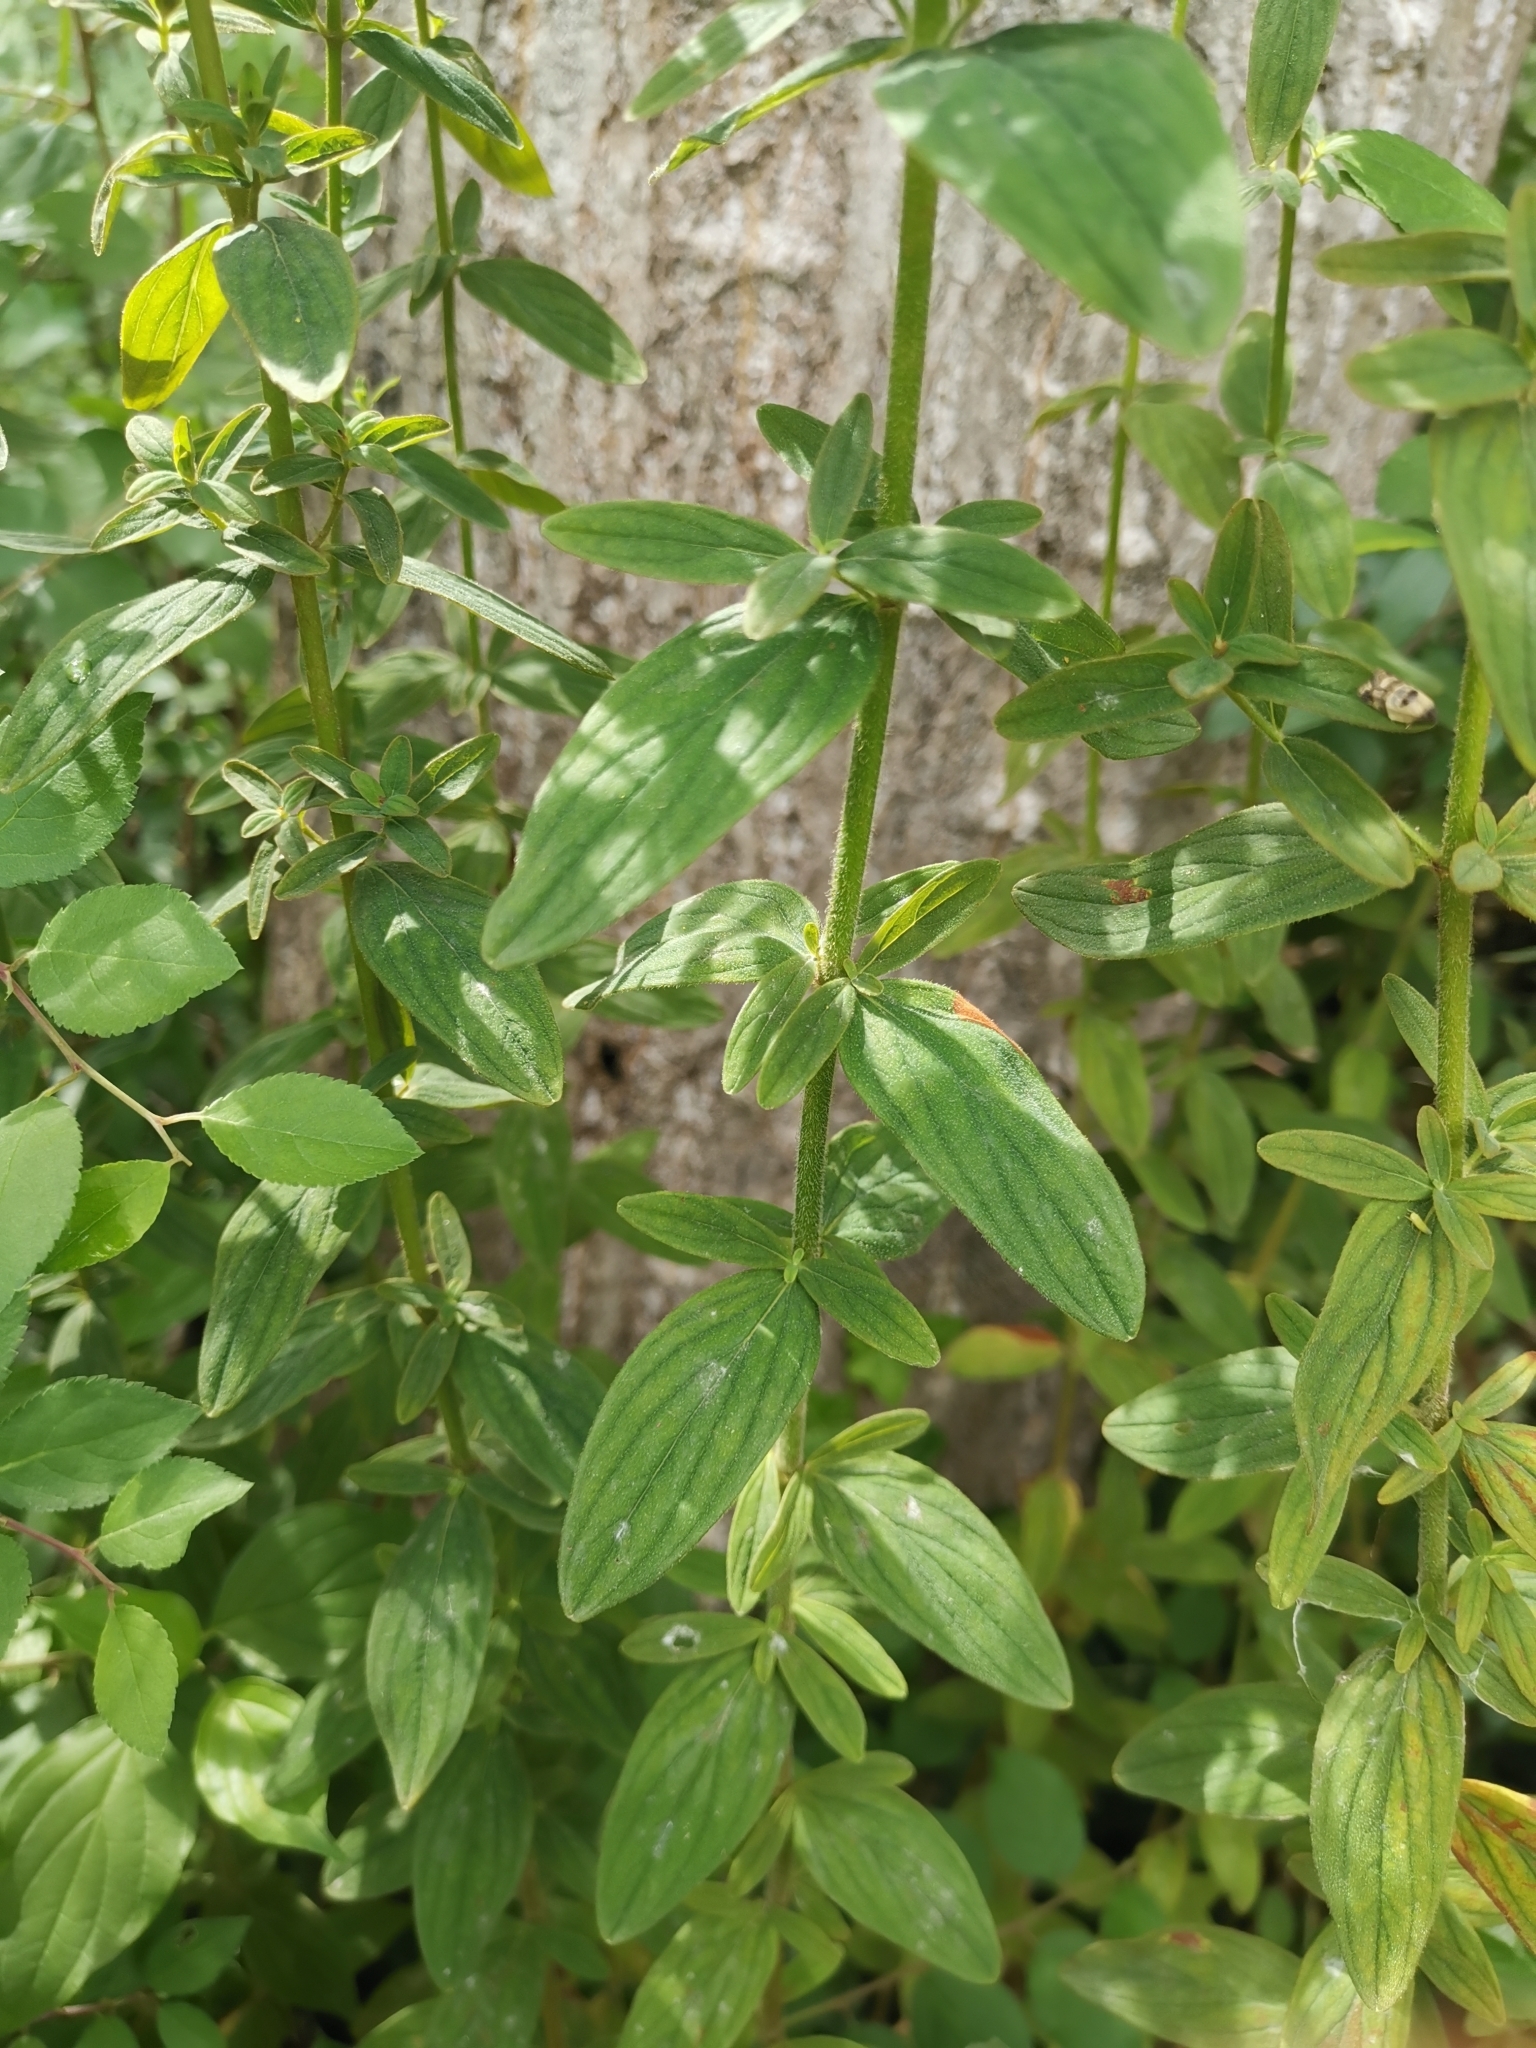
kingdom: Plantae
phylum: Tracheophyta
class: Magnoliopsida
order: Malpighiales
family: Hypericaceae
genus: Hypericum
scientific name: Hypericum hirsutum
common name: Hairy st. john's-wort
